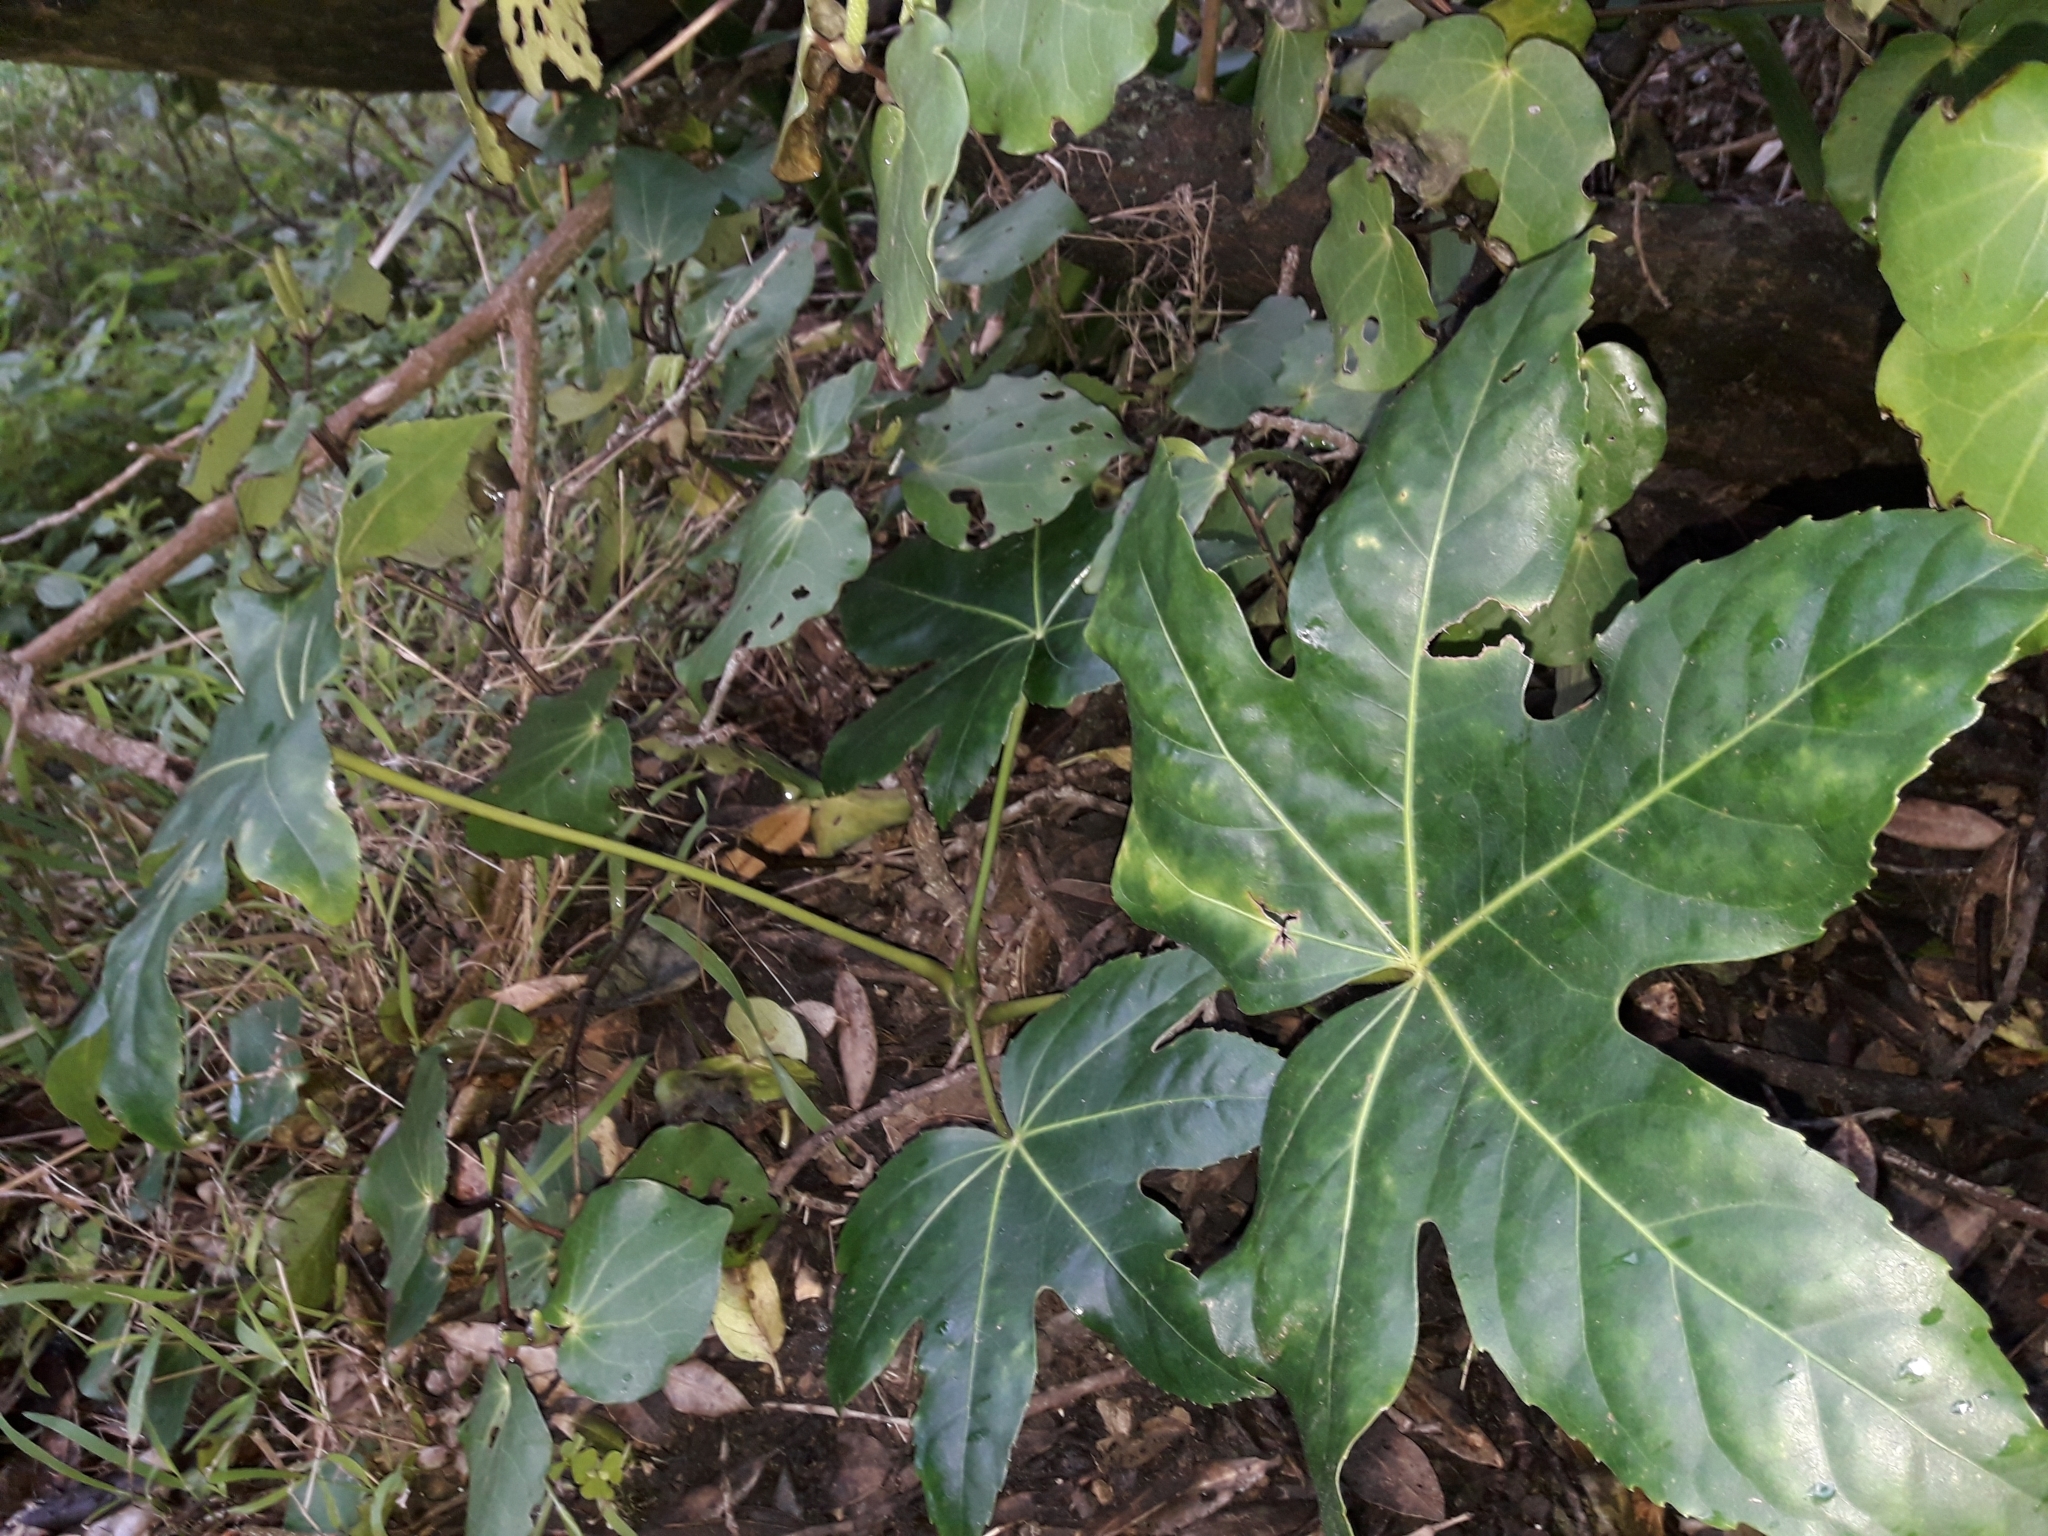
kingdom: Plantae
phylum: Tracheophyta
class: Magnoliopsida
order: Apiales
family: Araliaceae
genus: Fatsia
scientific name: Fatsia japonica
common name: Fatsia
